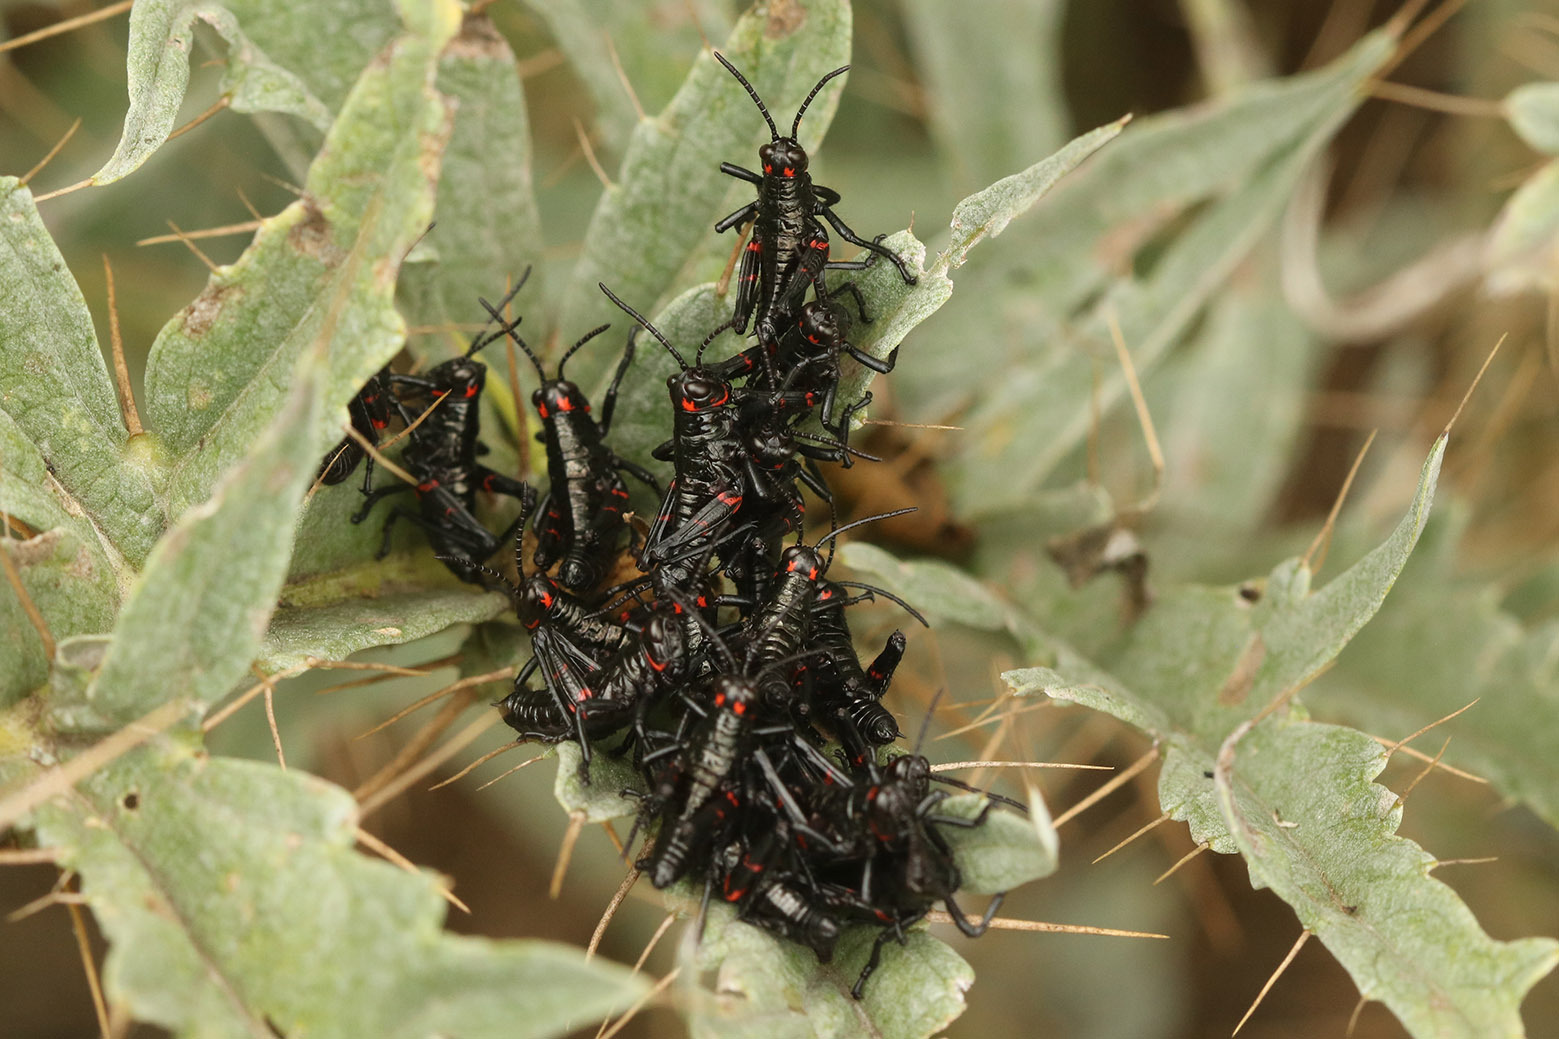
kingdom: Animalia
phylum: Arthropoda
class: Insecta
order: Orthoptera
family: Romaleidae
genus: Chromacris
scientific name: Chromacris speciosa
